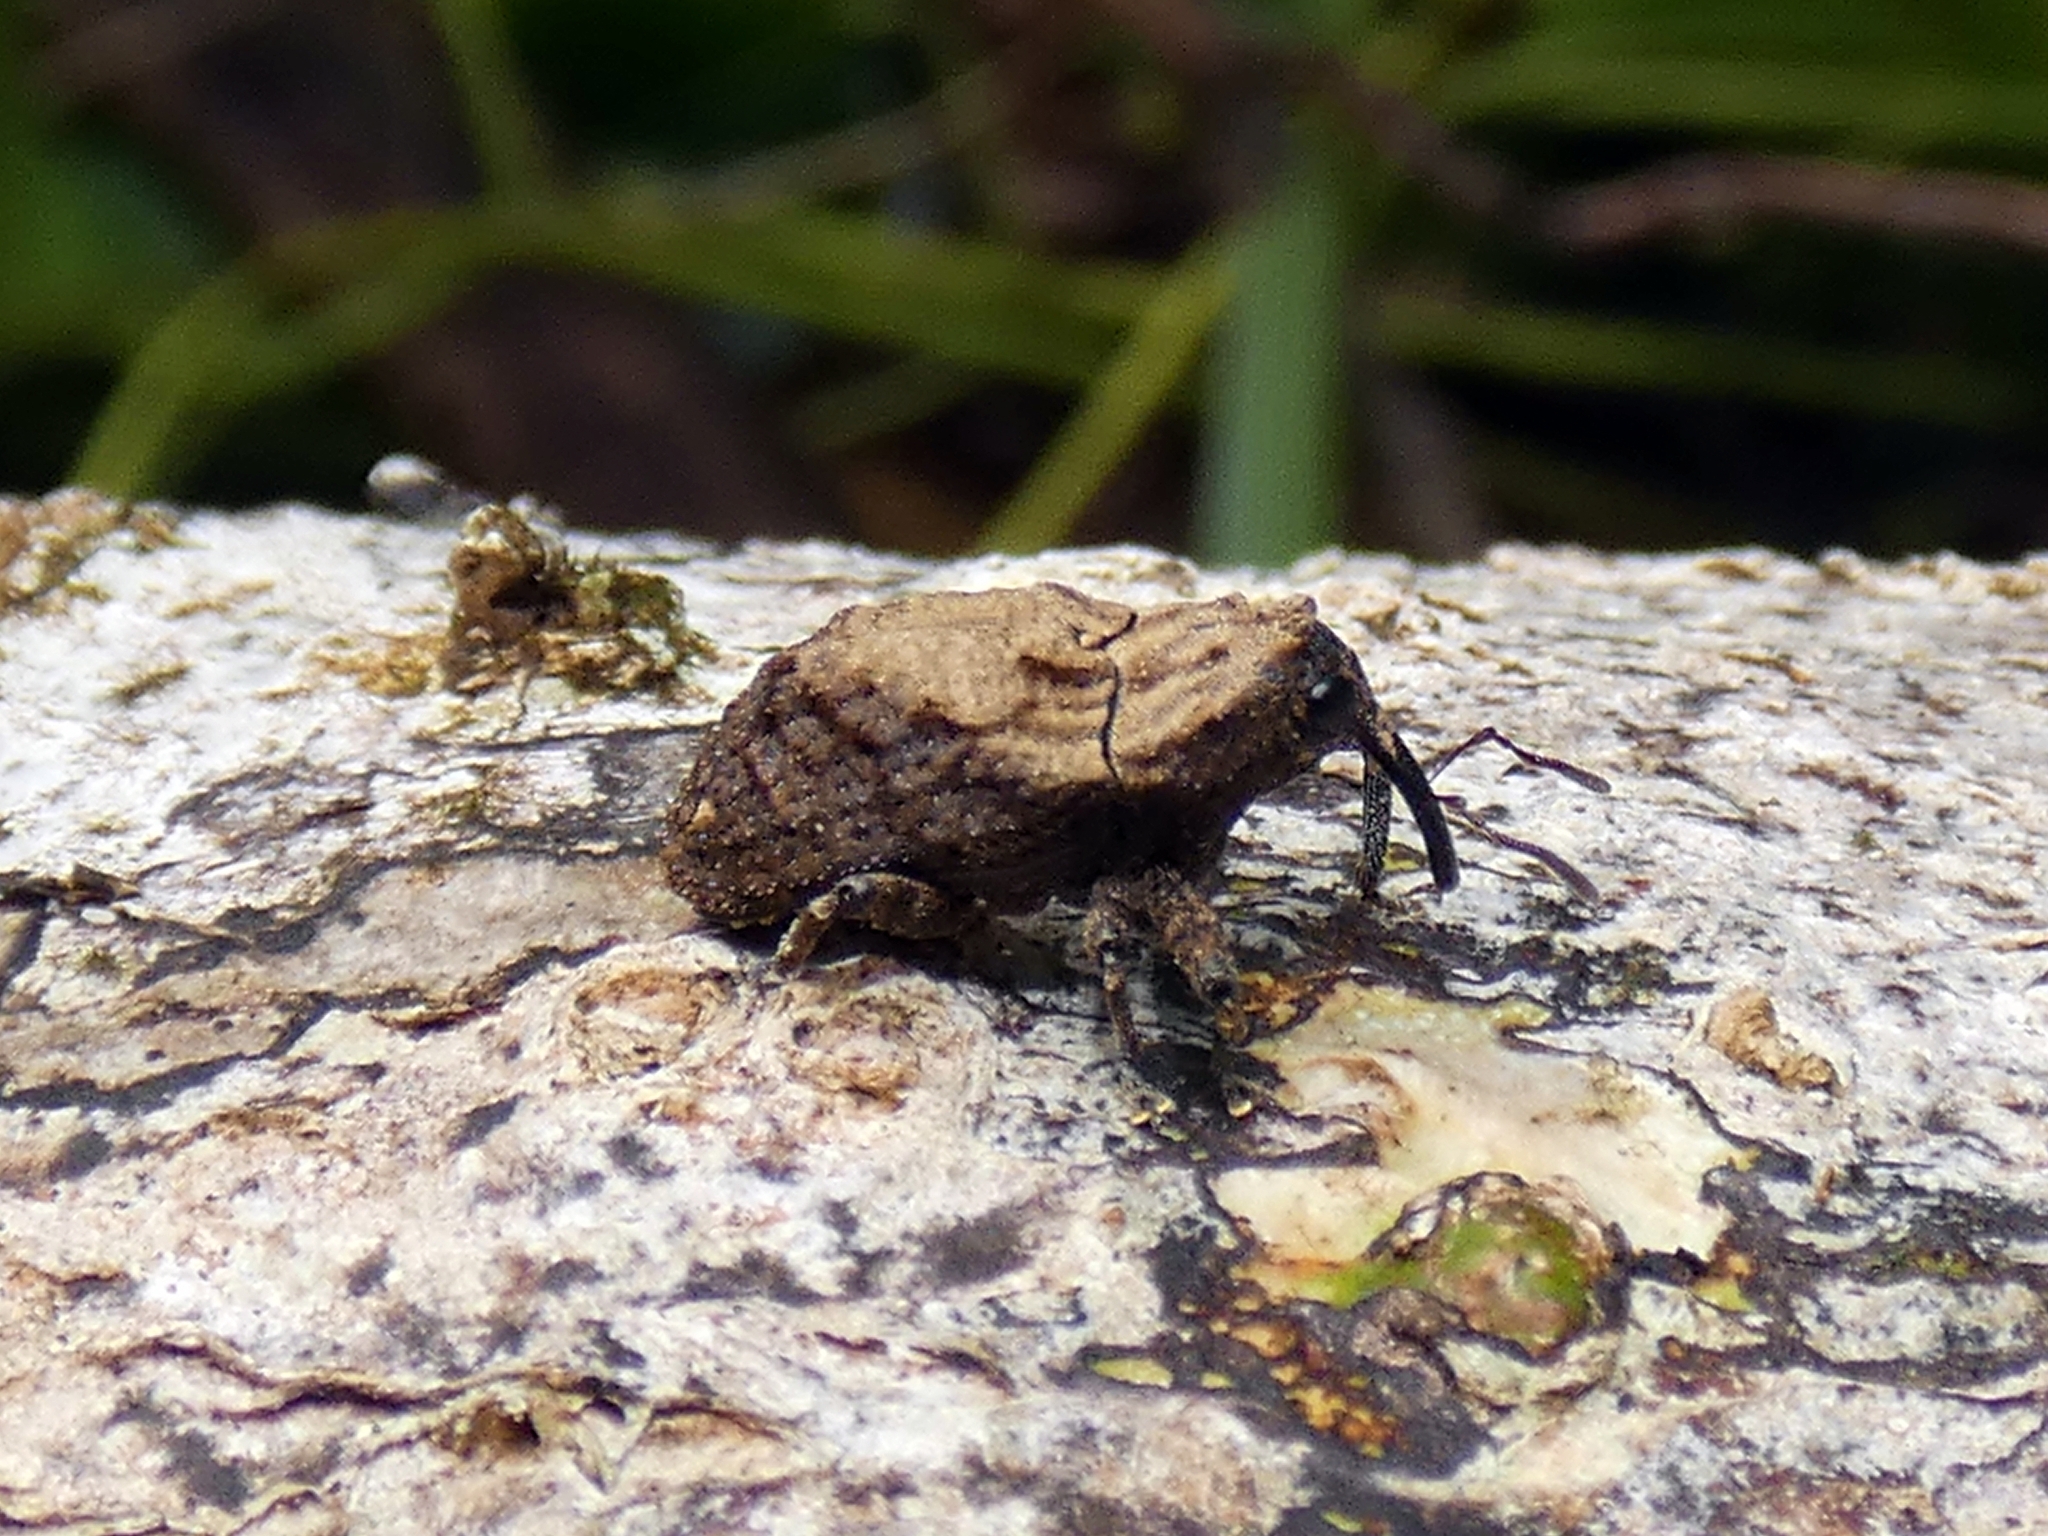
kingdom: Animalia
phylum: Arthropoda
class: Insecta
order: Coleoptera
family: Curculionidae
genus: Blepiarda
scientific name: Blepiarda undulata
